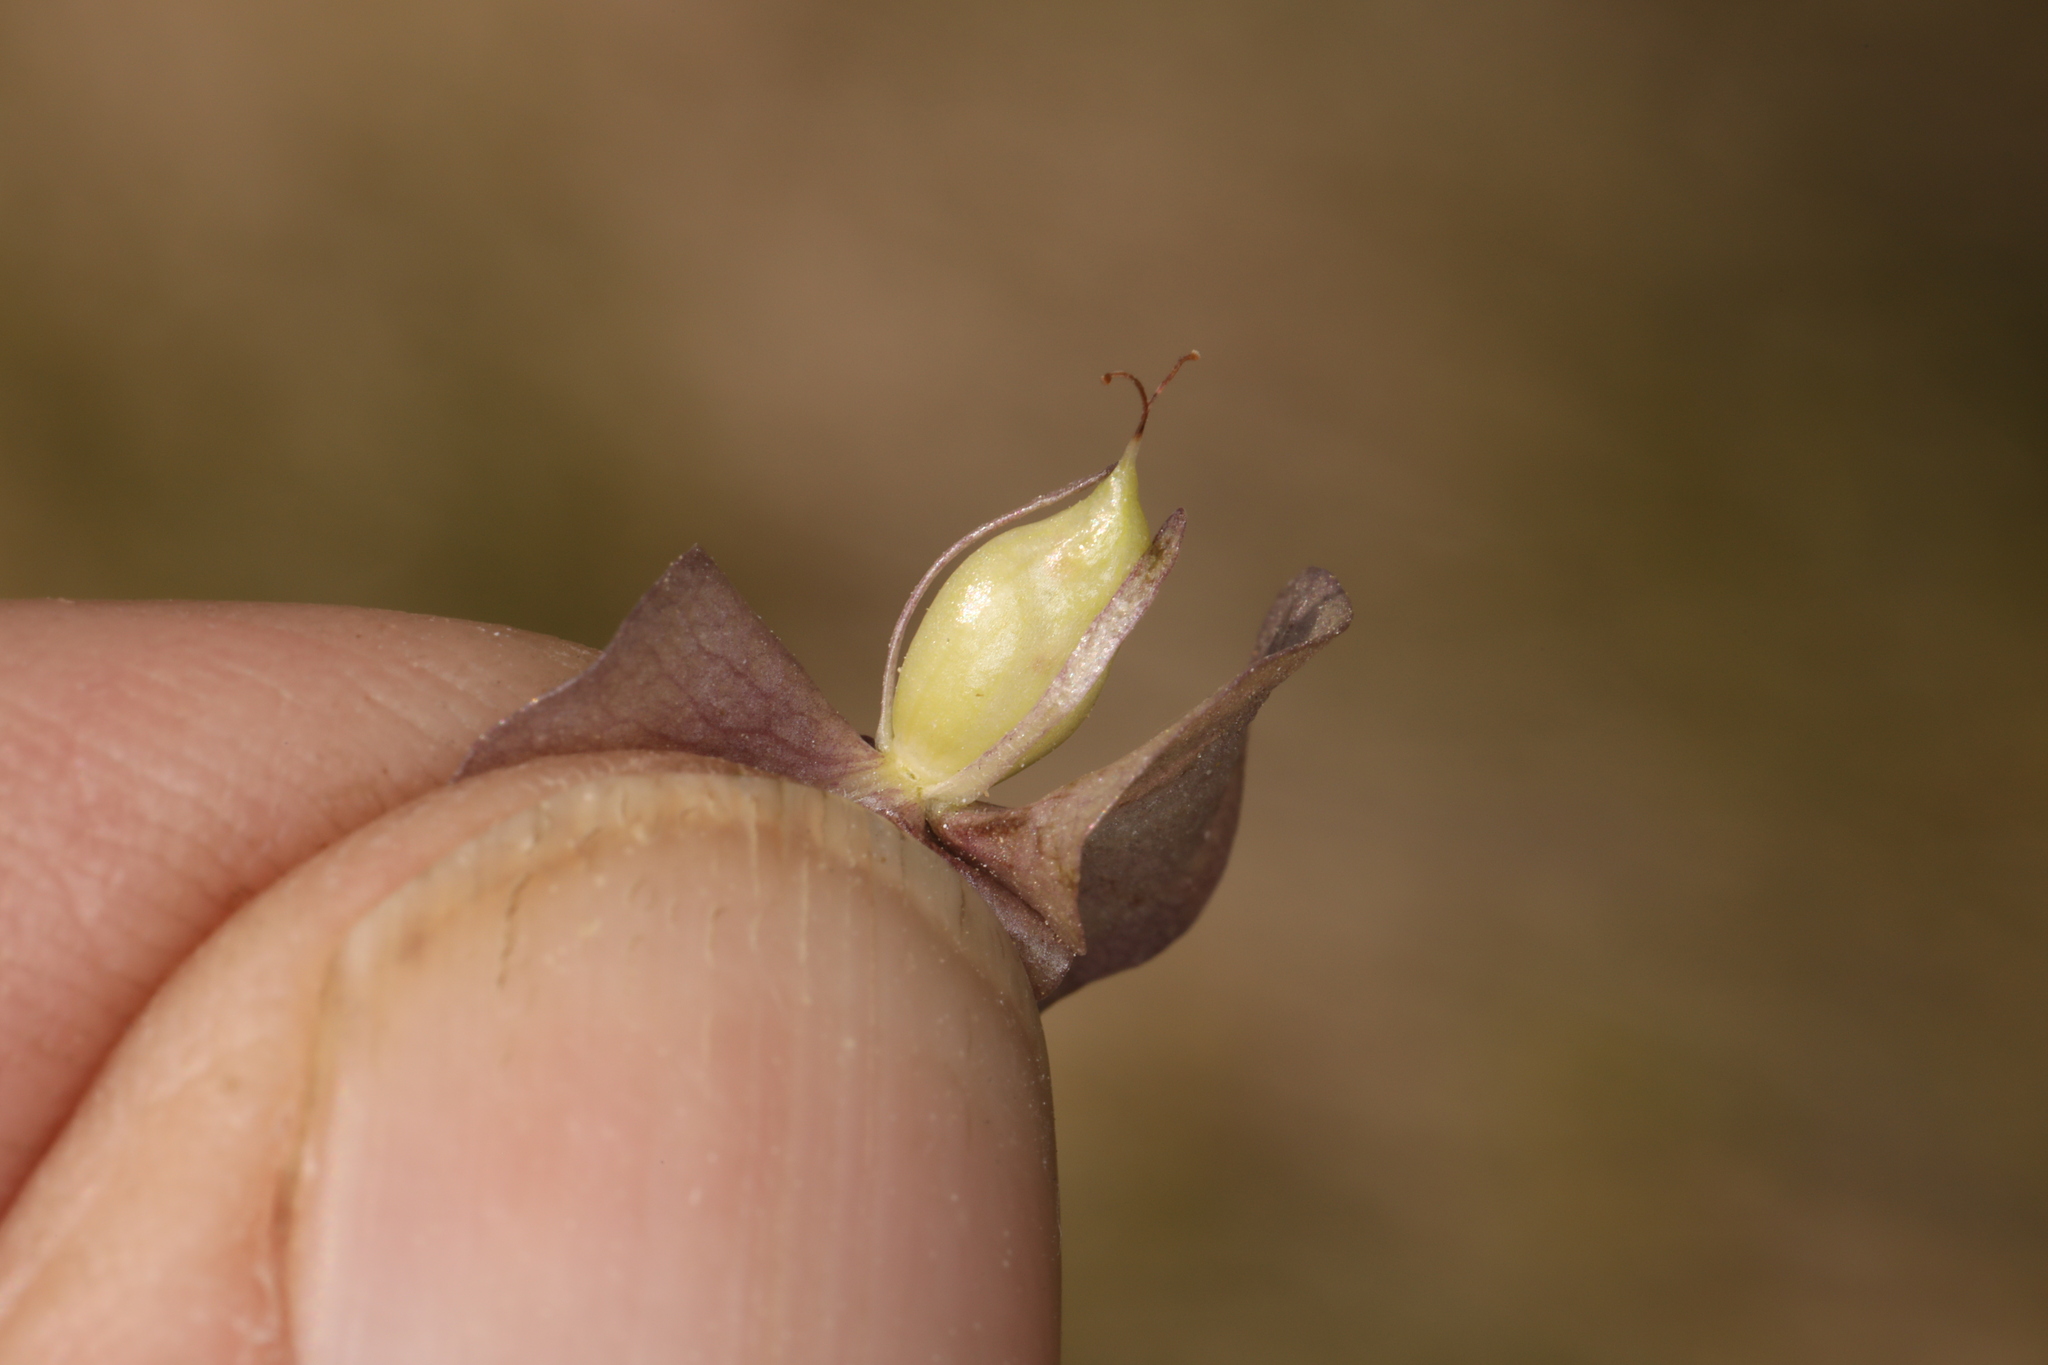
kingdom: Plantae
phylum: Tracheophyta
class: Magnoliopsida
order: Boraginales
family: Hydrophyllaceae
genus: Tricardia
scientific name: Tricardia watsonii
